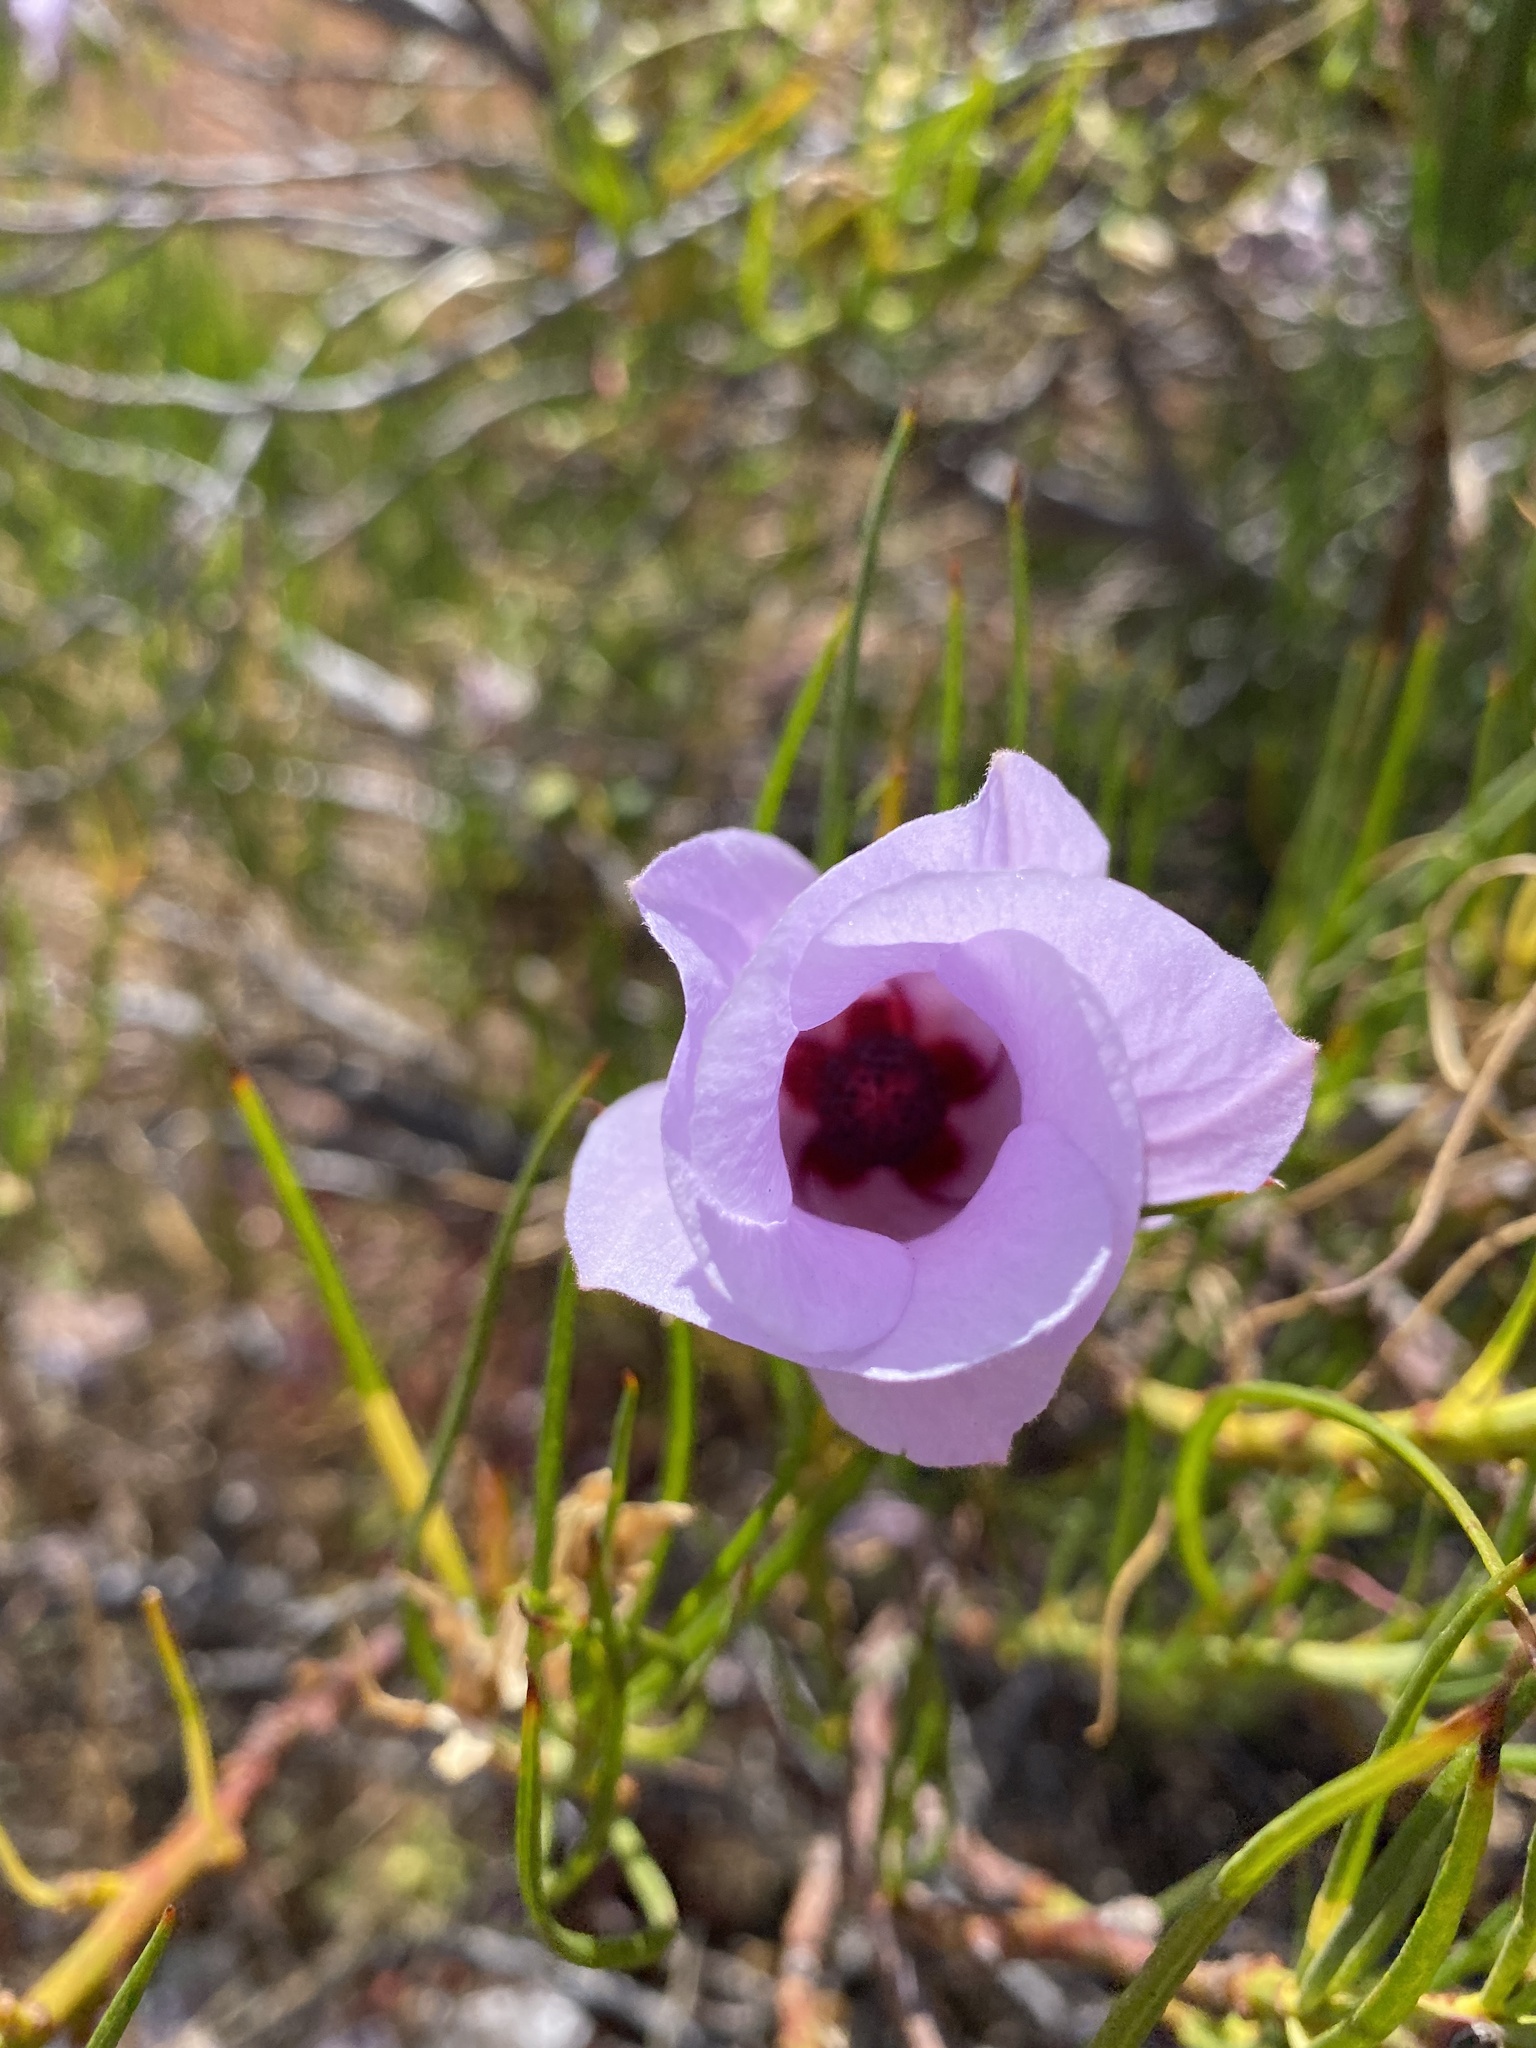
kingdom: Plantae
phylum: Tracheophyta
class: Magnoliopsida
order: Malvales
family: Malvaceae
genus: Hibiscus
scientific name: Hibiscus hakeifolius
